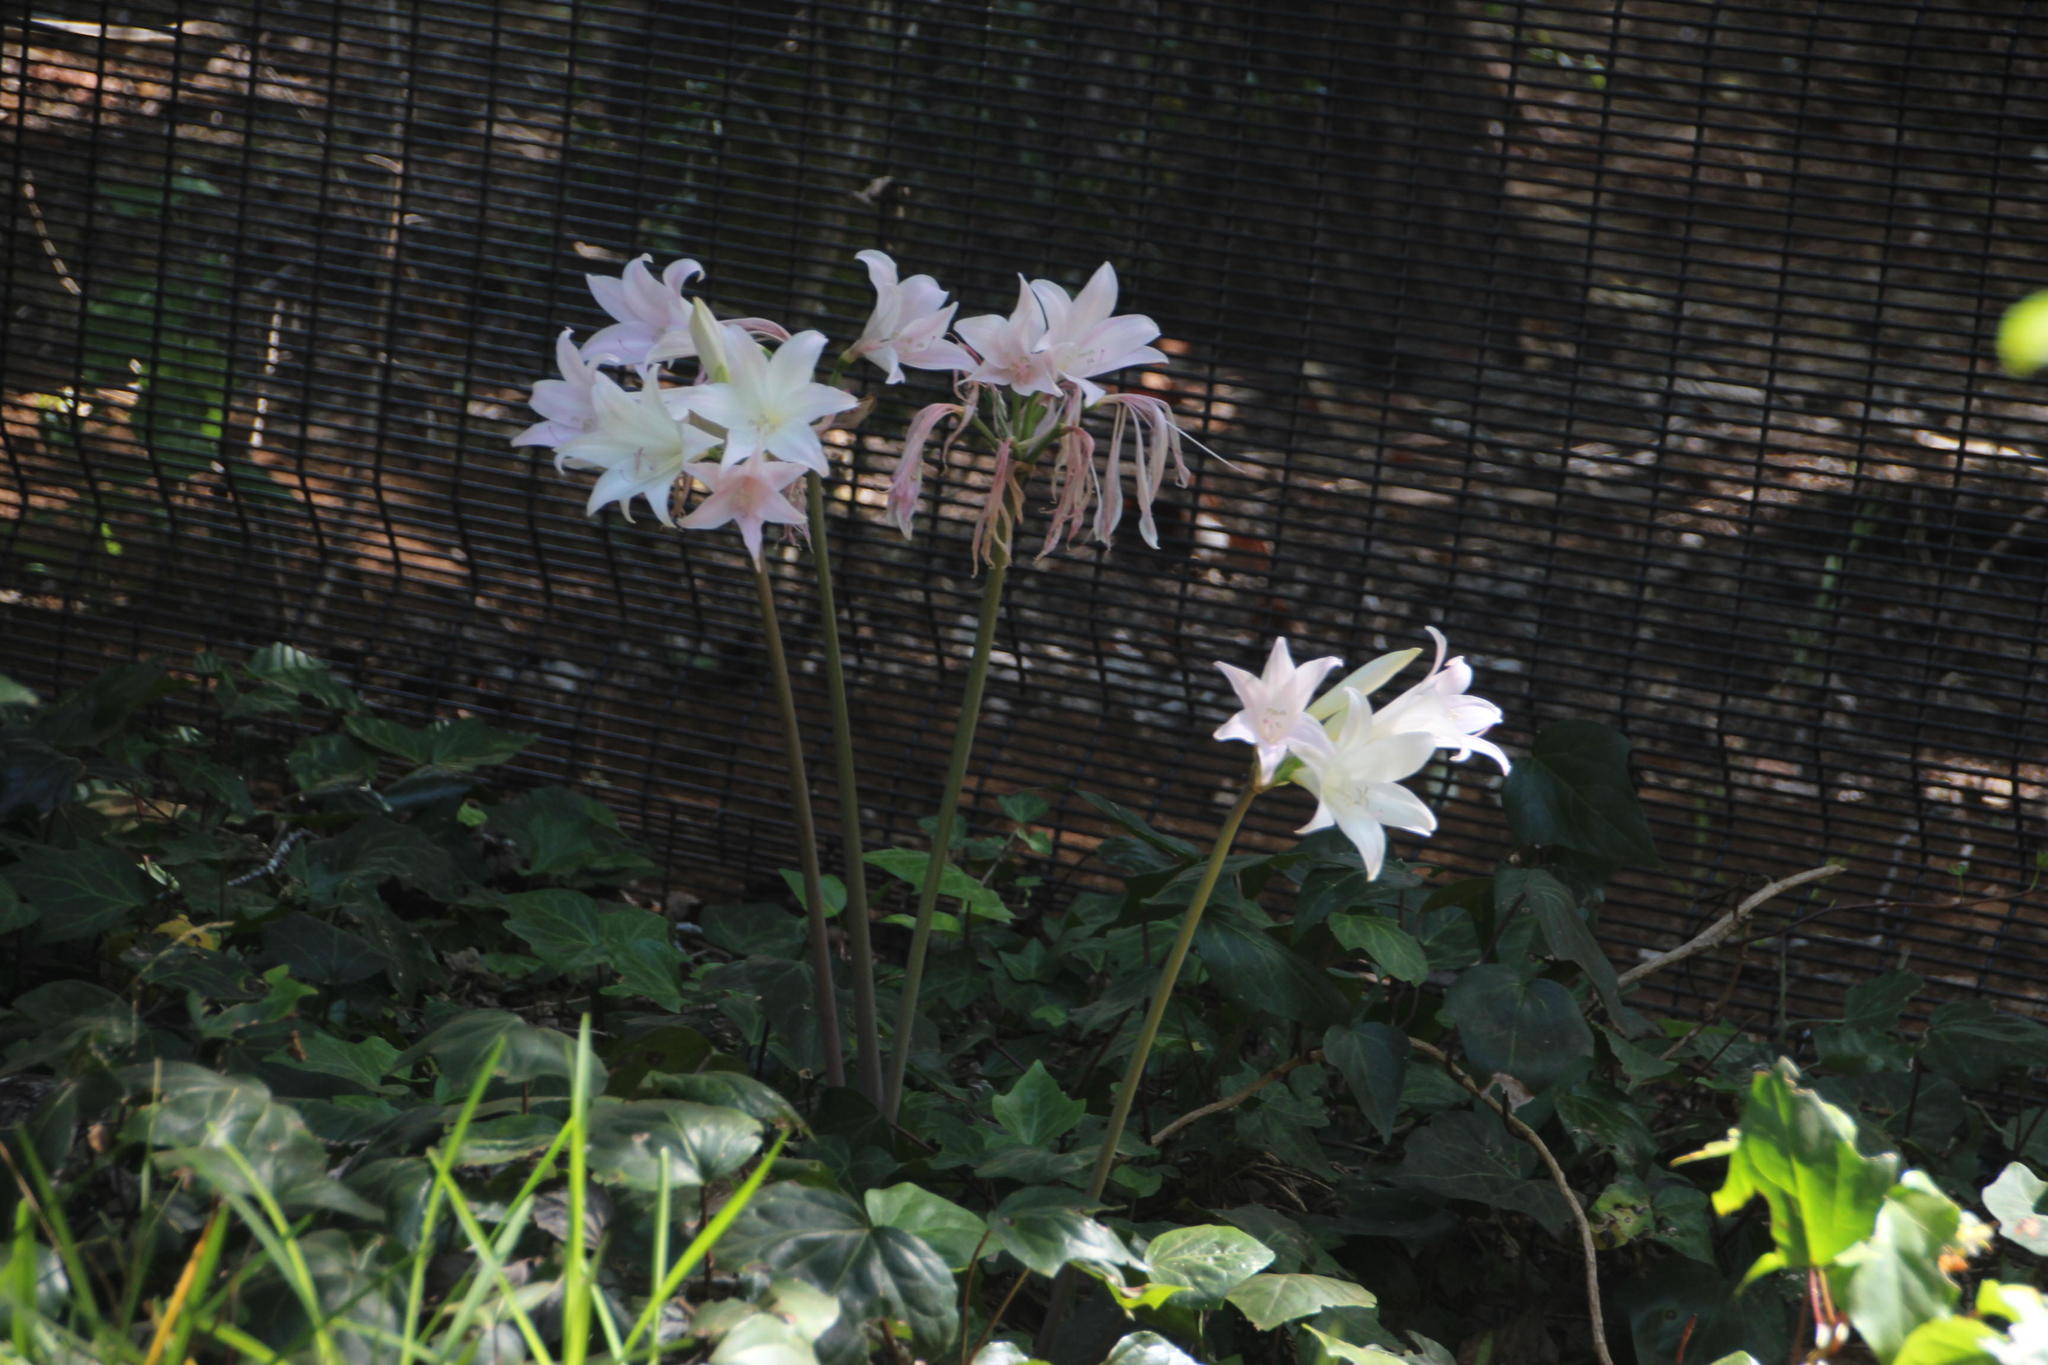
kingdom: Plantae
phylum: Tracheophyta
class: Liliopsida
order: Asparagales
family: Amaryllidaceae
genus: Amaryllis
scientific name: Amaryllis belladonna
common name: Jersey lily
